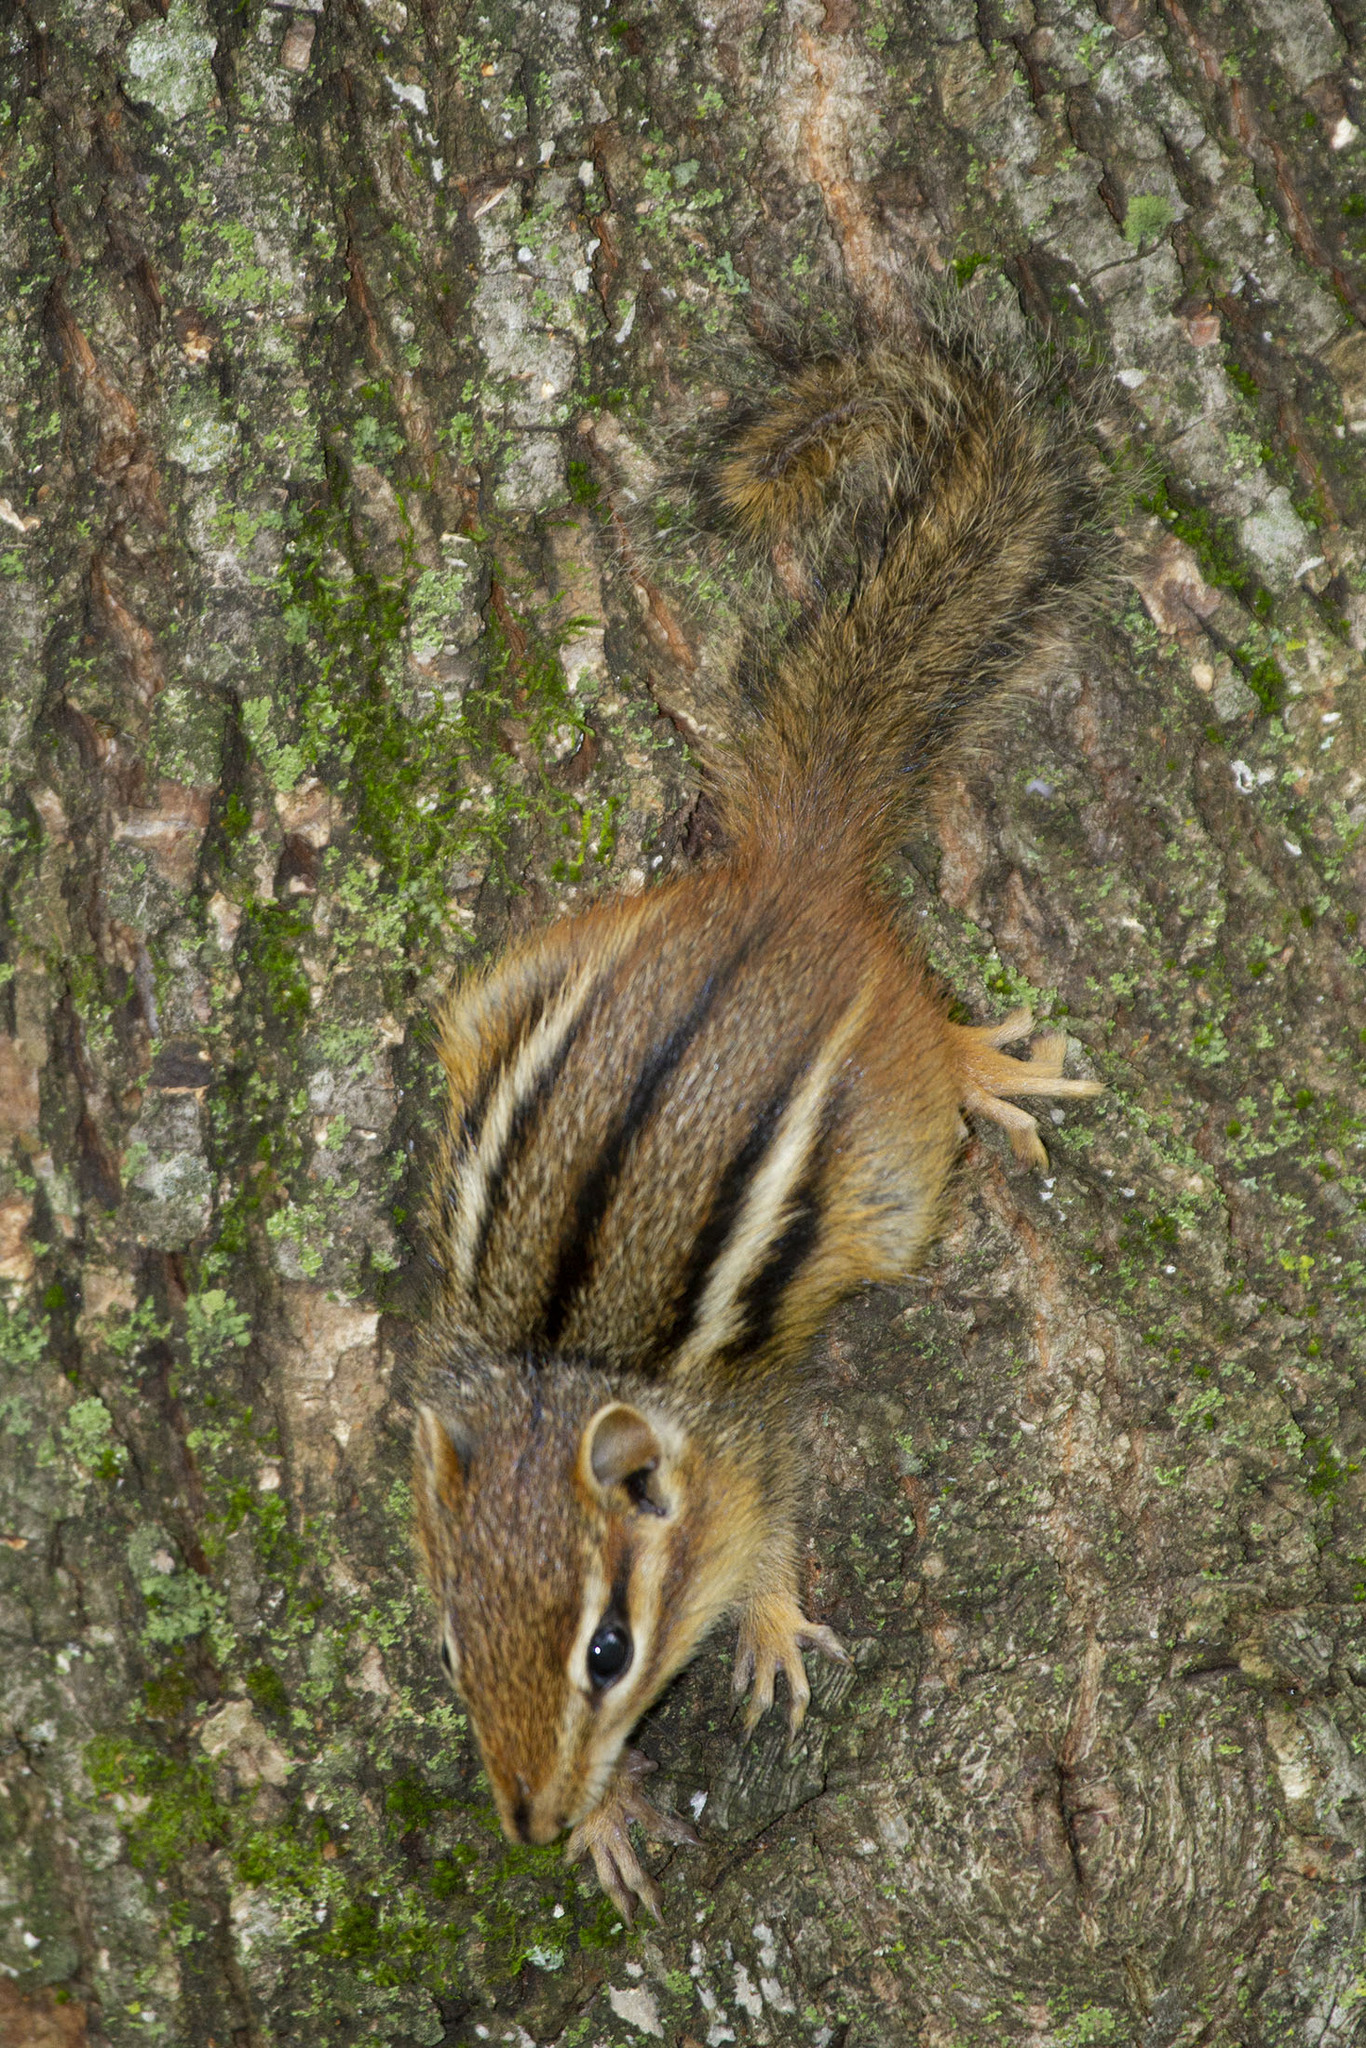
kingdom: Animalia
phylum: Chordata
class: Mammalia
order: Rodentia
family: Sciuridae
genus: Tamias
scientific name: Tamias striatus
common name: Eastern chipmunk
